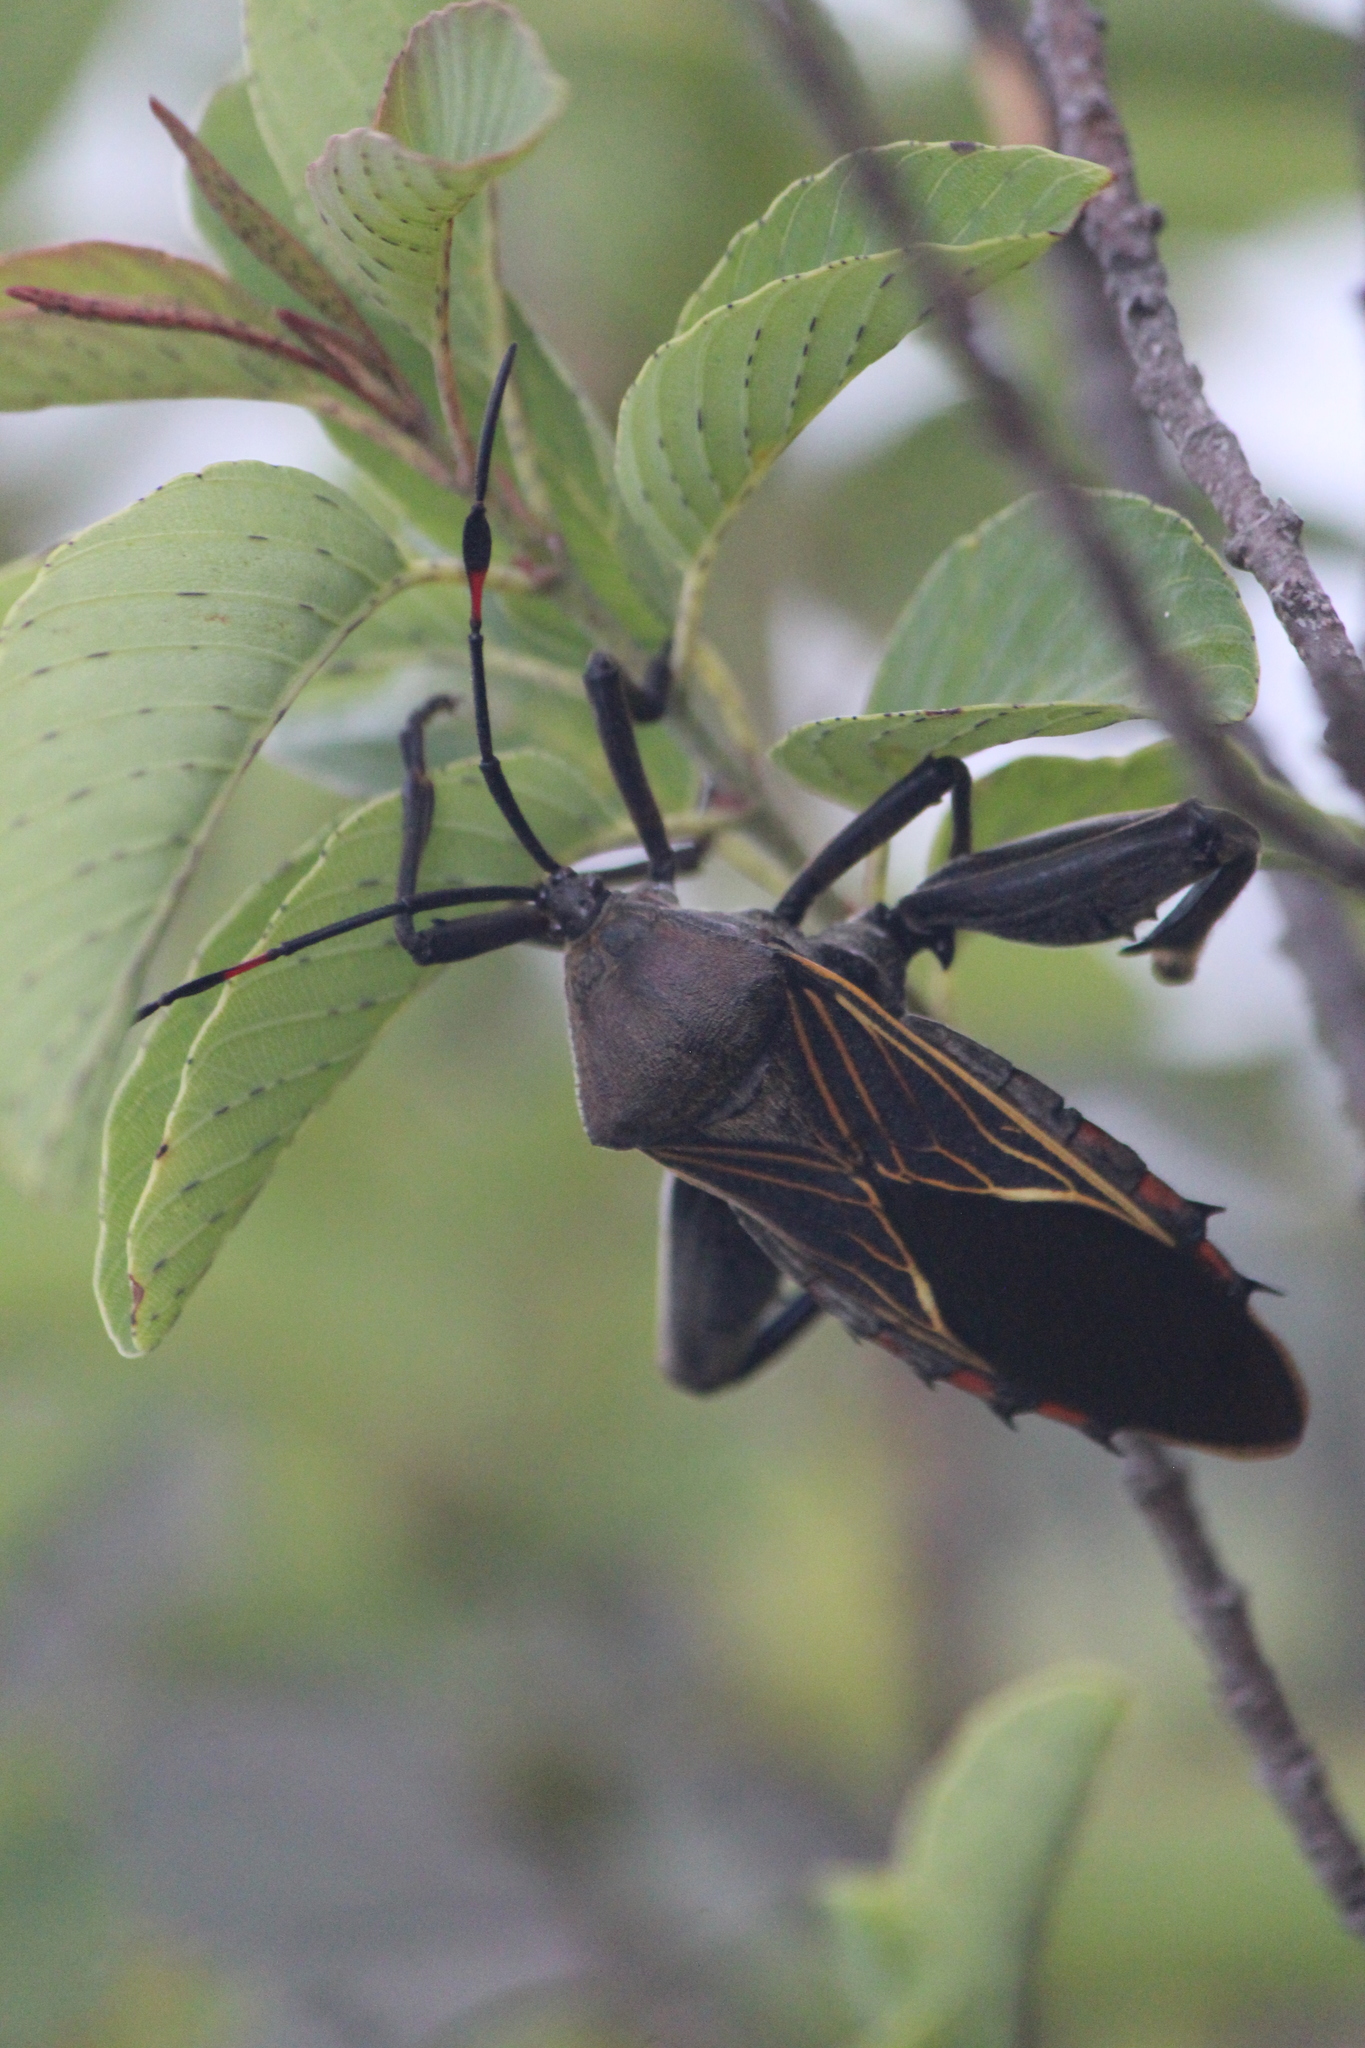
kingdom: Animalia
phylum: Arthropoda
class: Insecta
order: Hemiptera
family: Coreidae
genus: Thasus
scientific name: Thasus
